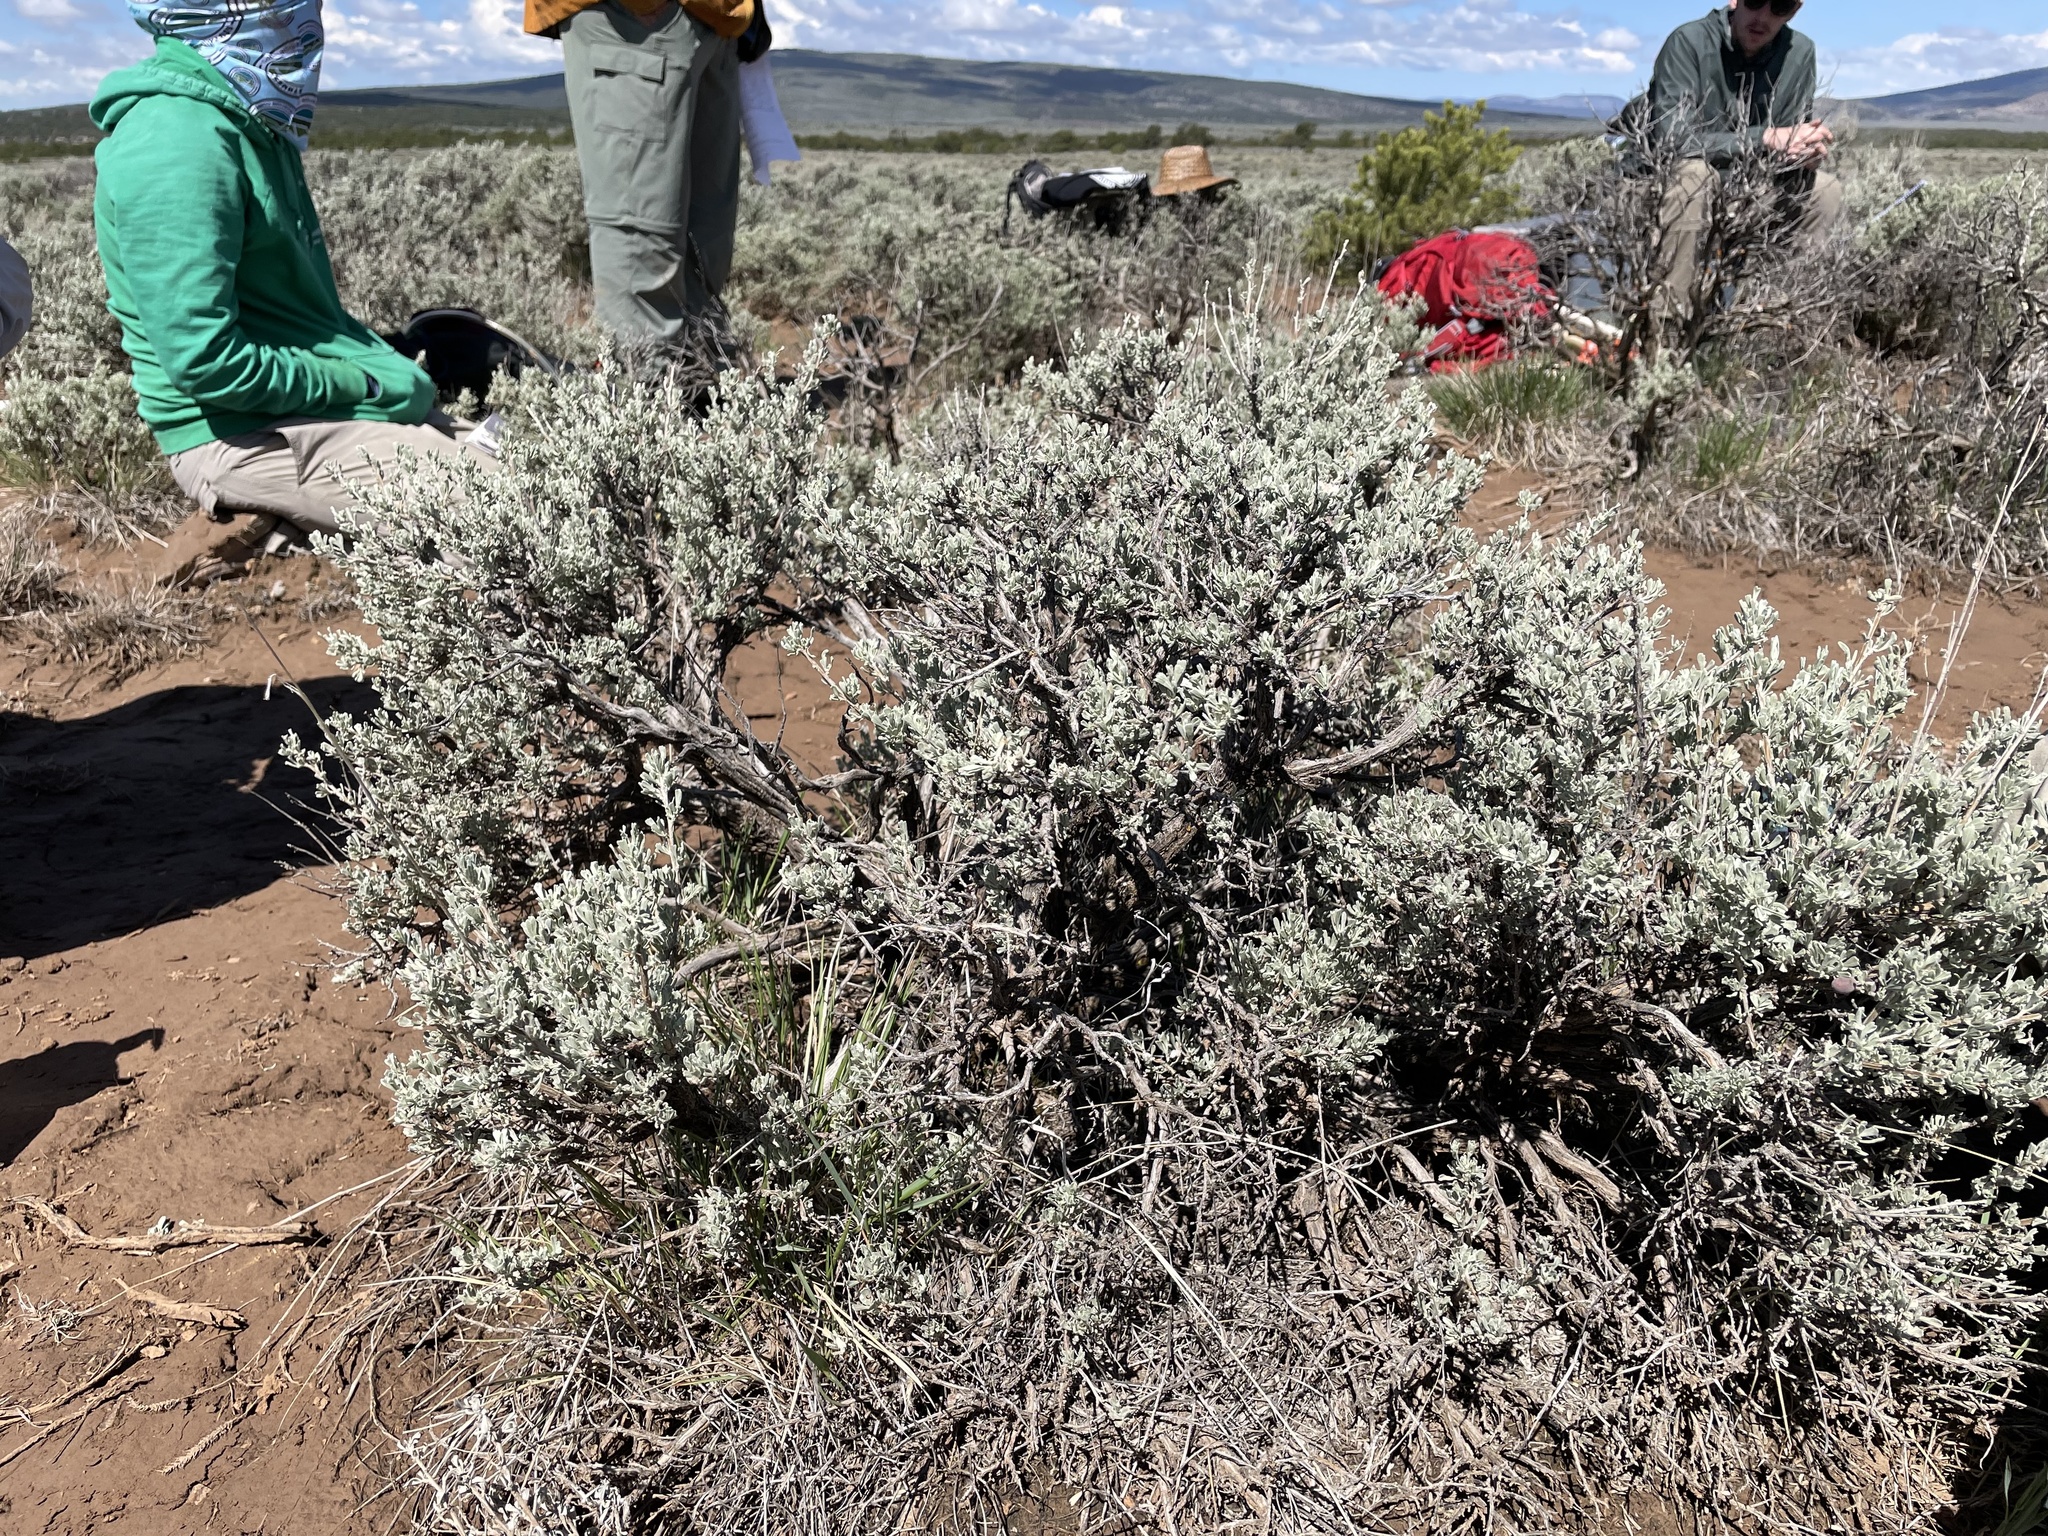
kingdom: Plantae
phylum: Tracheophyta
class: Magnoliopsida
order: Asterales
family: Asteraceae
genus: Artemisia
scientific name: Artemisia tridentata
